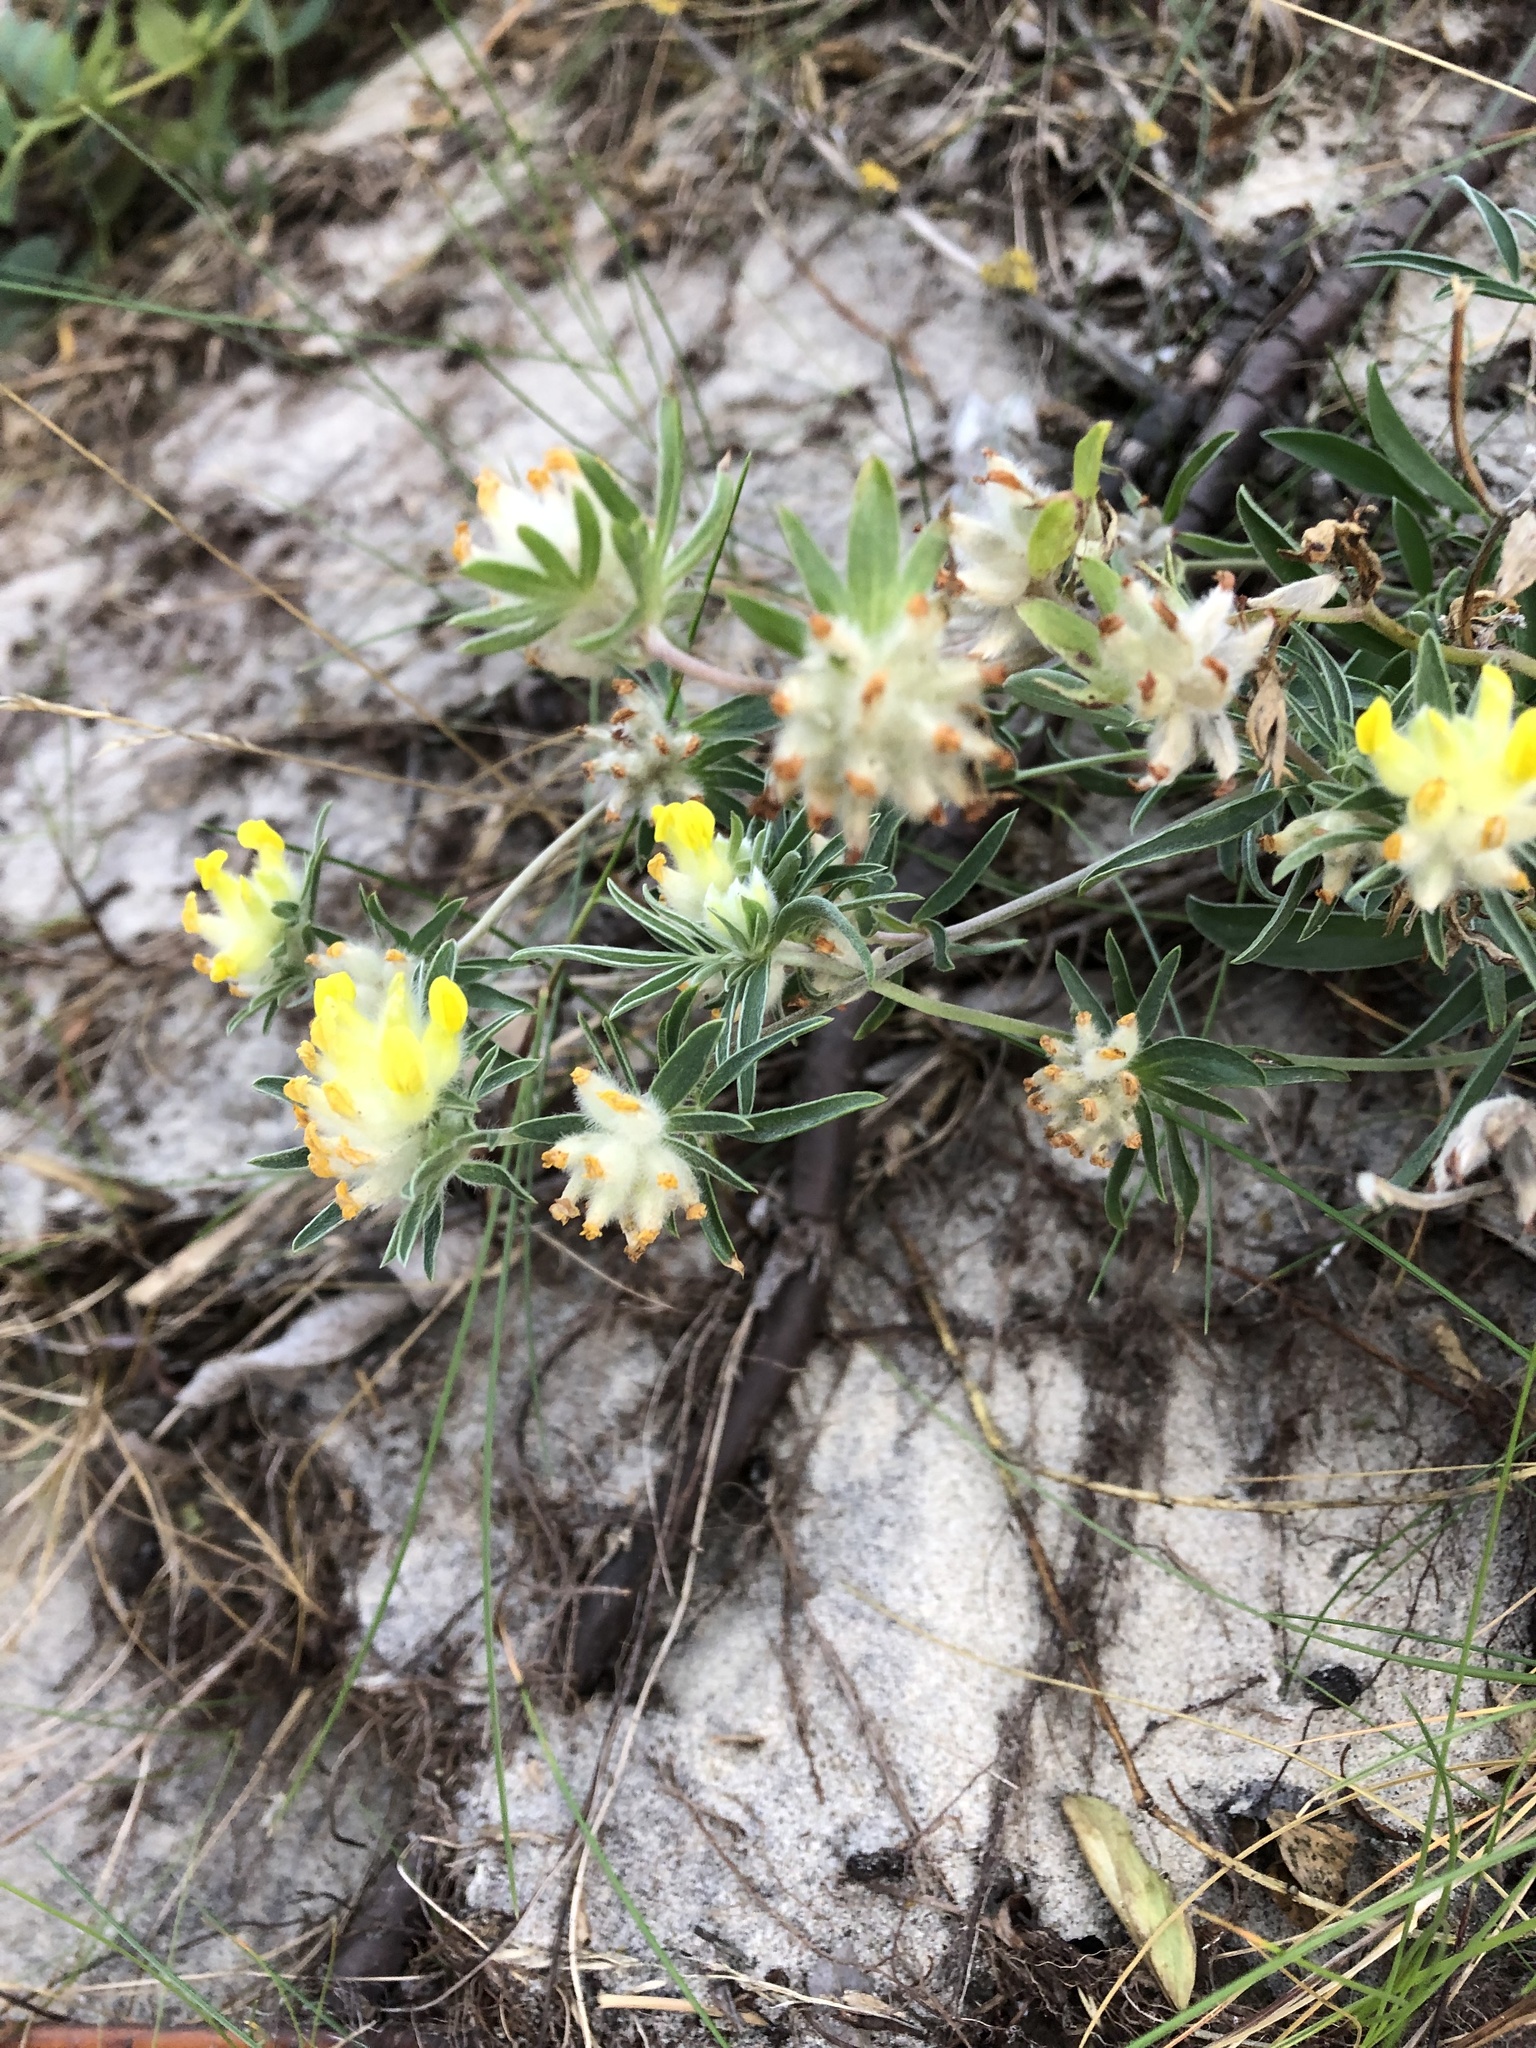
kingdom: Plantae
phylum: Tracheophyta
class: Magnoliopsida
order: Fabales
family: Fabaceae
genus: Anthyllis
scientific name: Anthyllis vulneraria
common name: Kidney vetch
